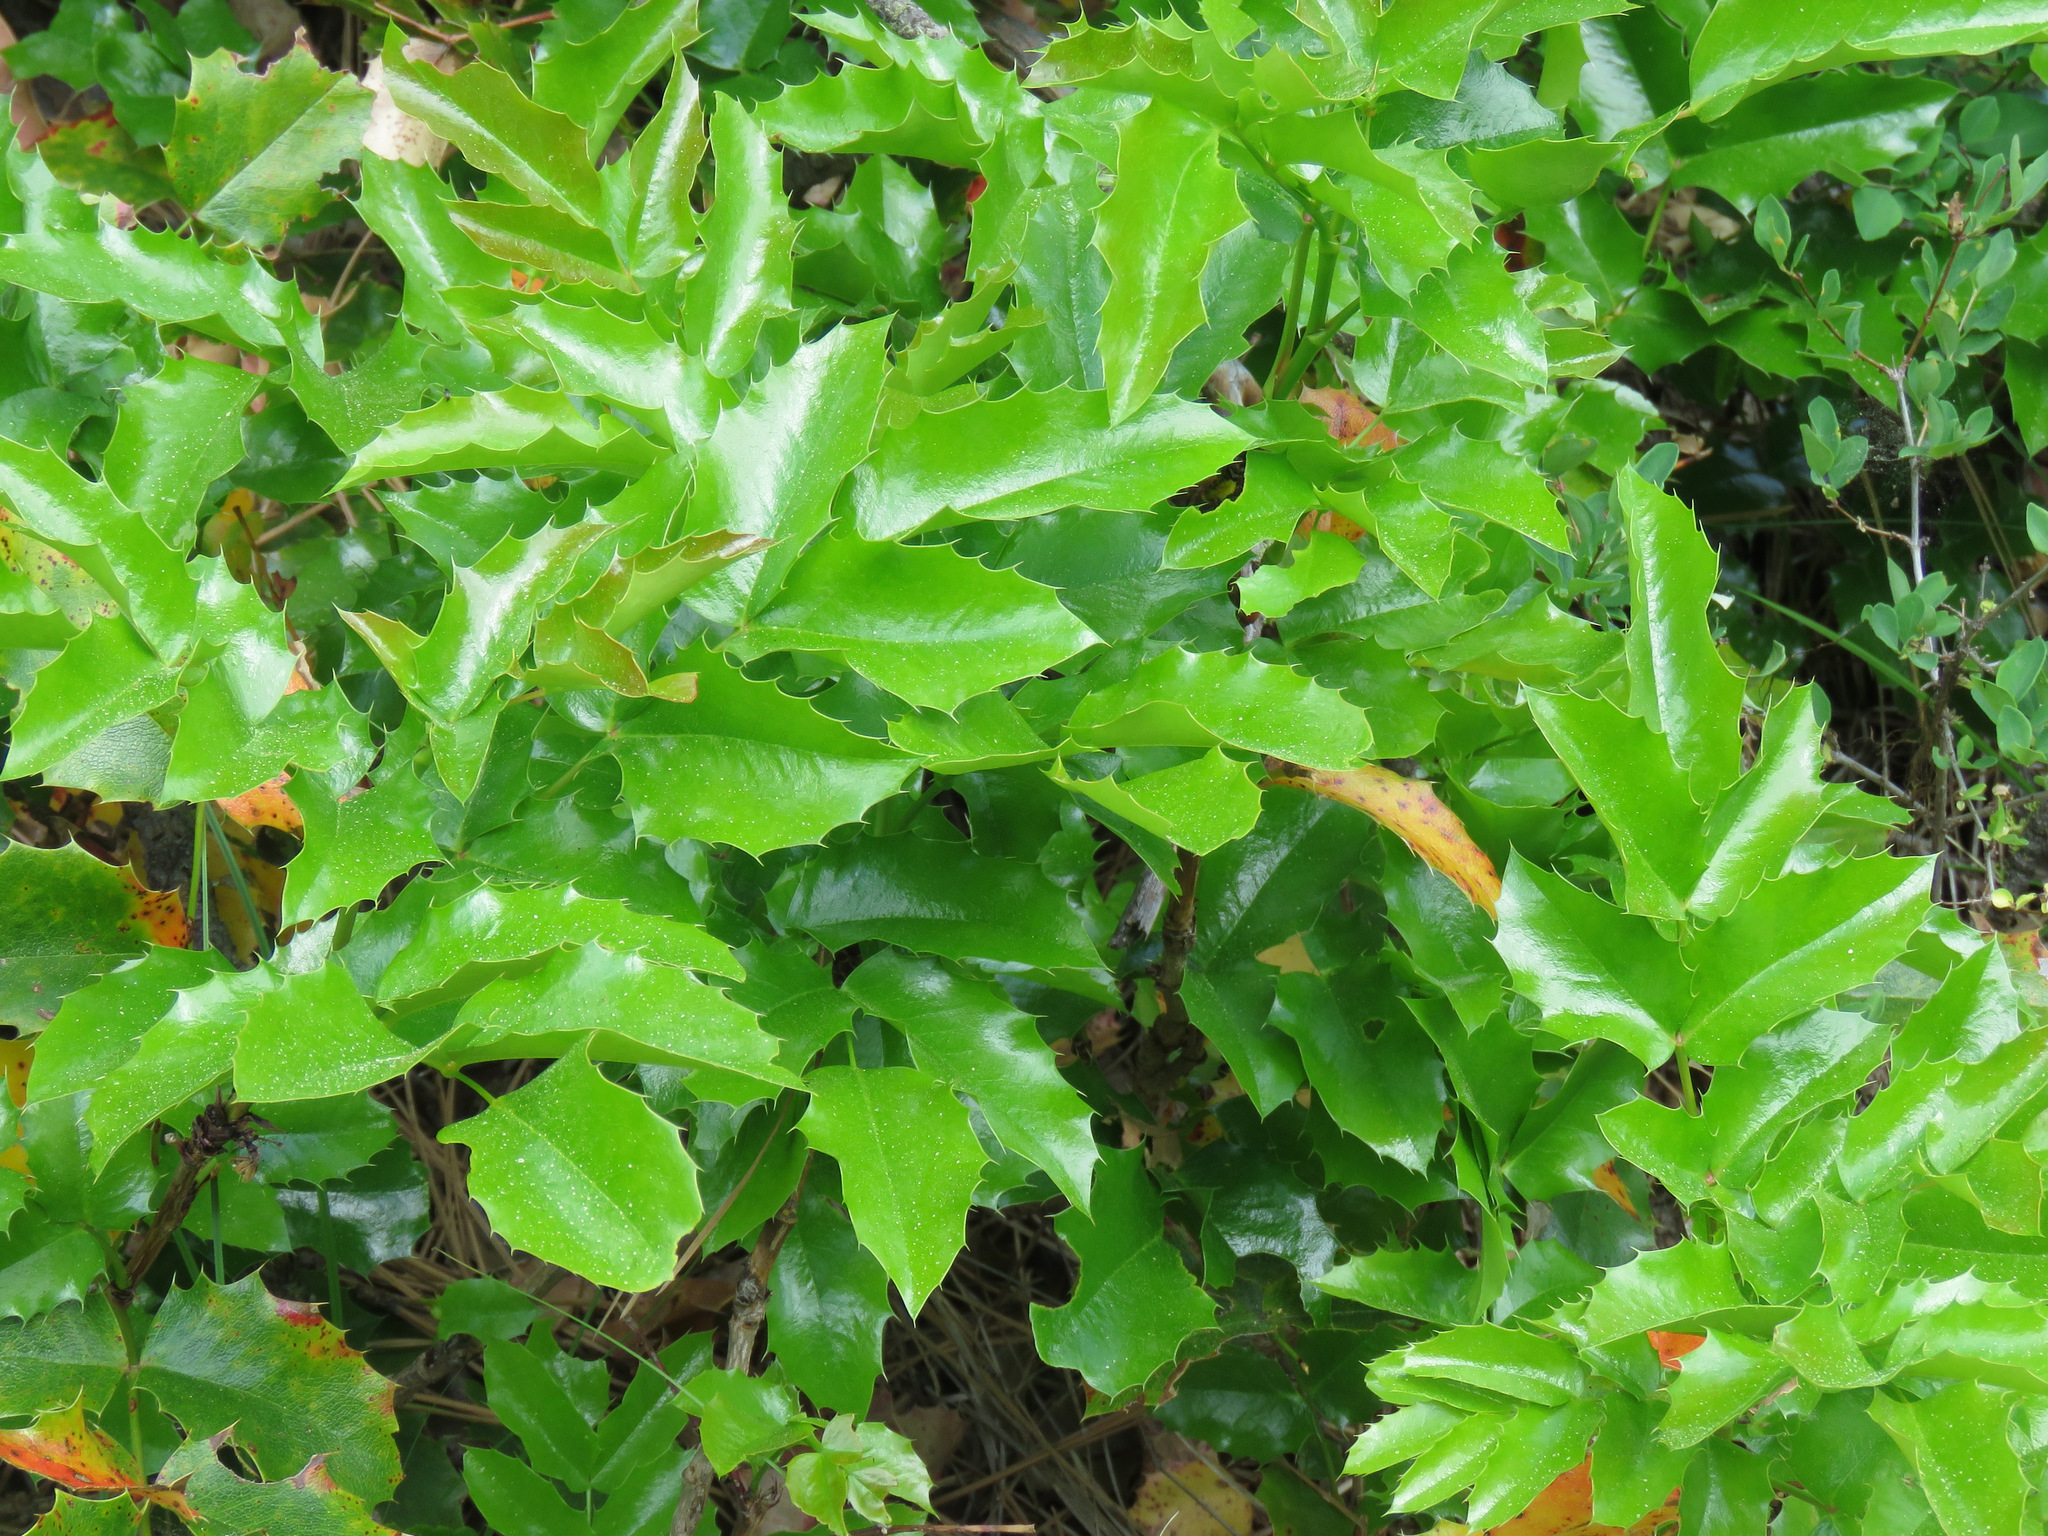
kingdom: Plantae
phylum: Tracheophyta
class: Magnoliopsida
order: Ranunculales
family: Berberidaceae
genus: Mahonia
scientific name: Mahonia aquifolium
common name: Oregon-grape
